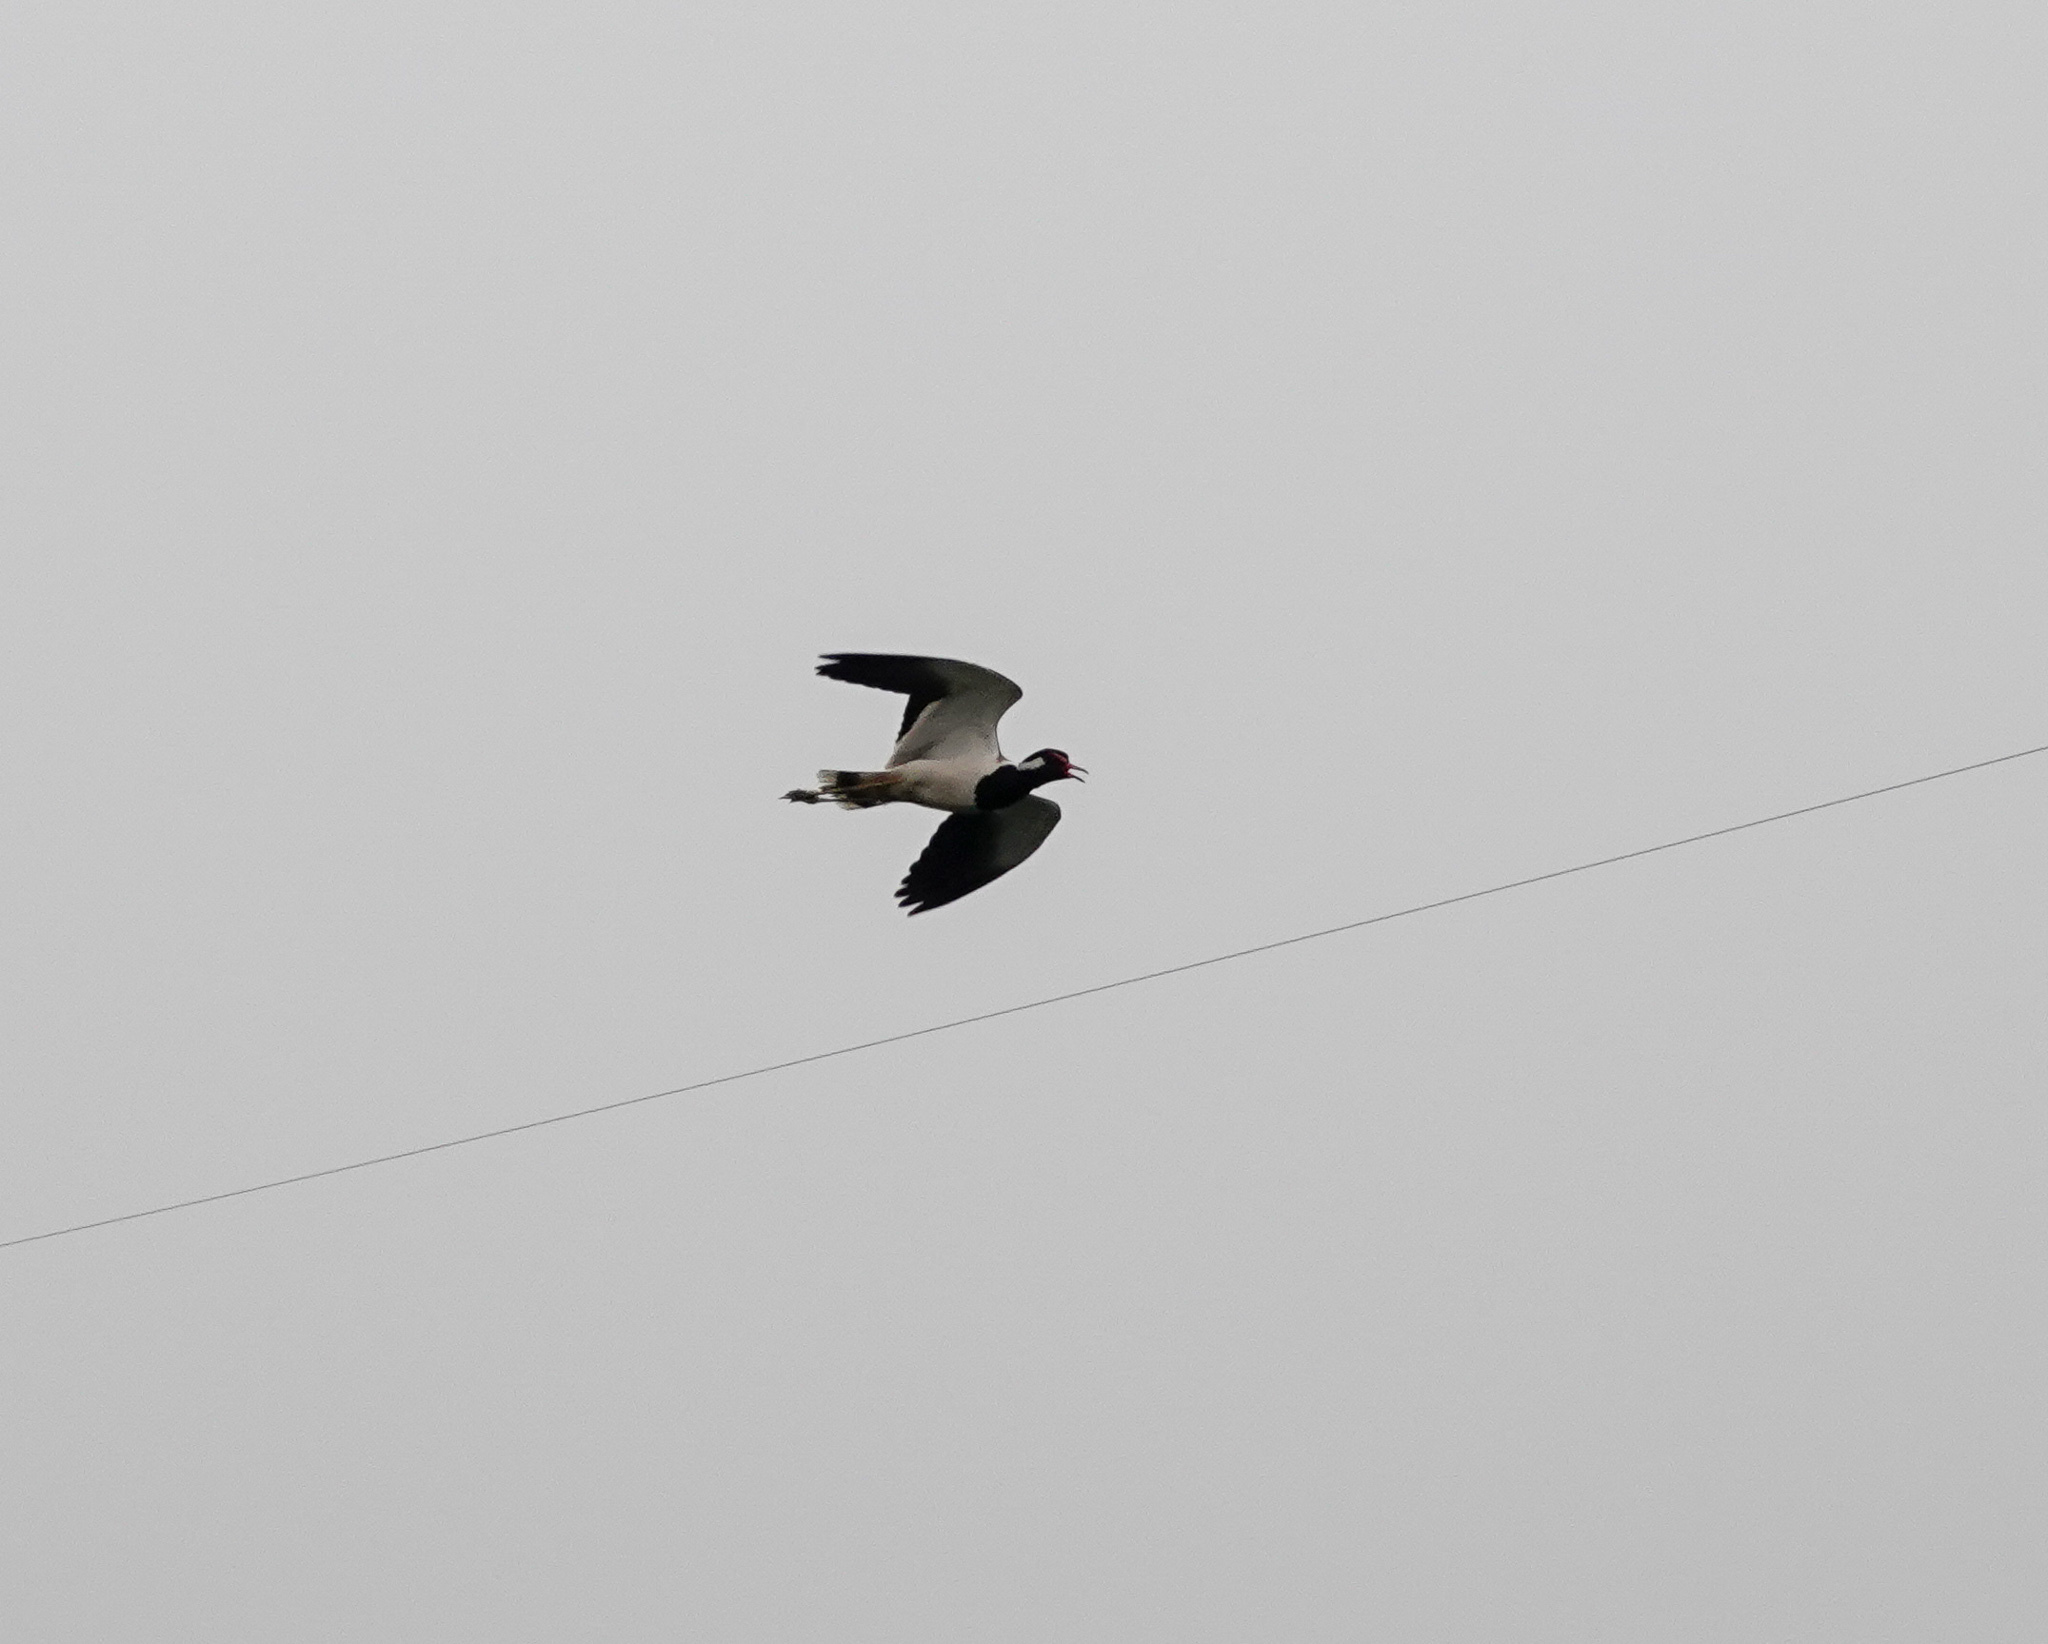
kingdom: Animalia
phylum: Chordata
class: Aves
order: Charadriiformes
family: Charadriidae
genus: Vanellus
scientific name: Vanellus indicus
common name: Red-wattled lapwing
